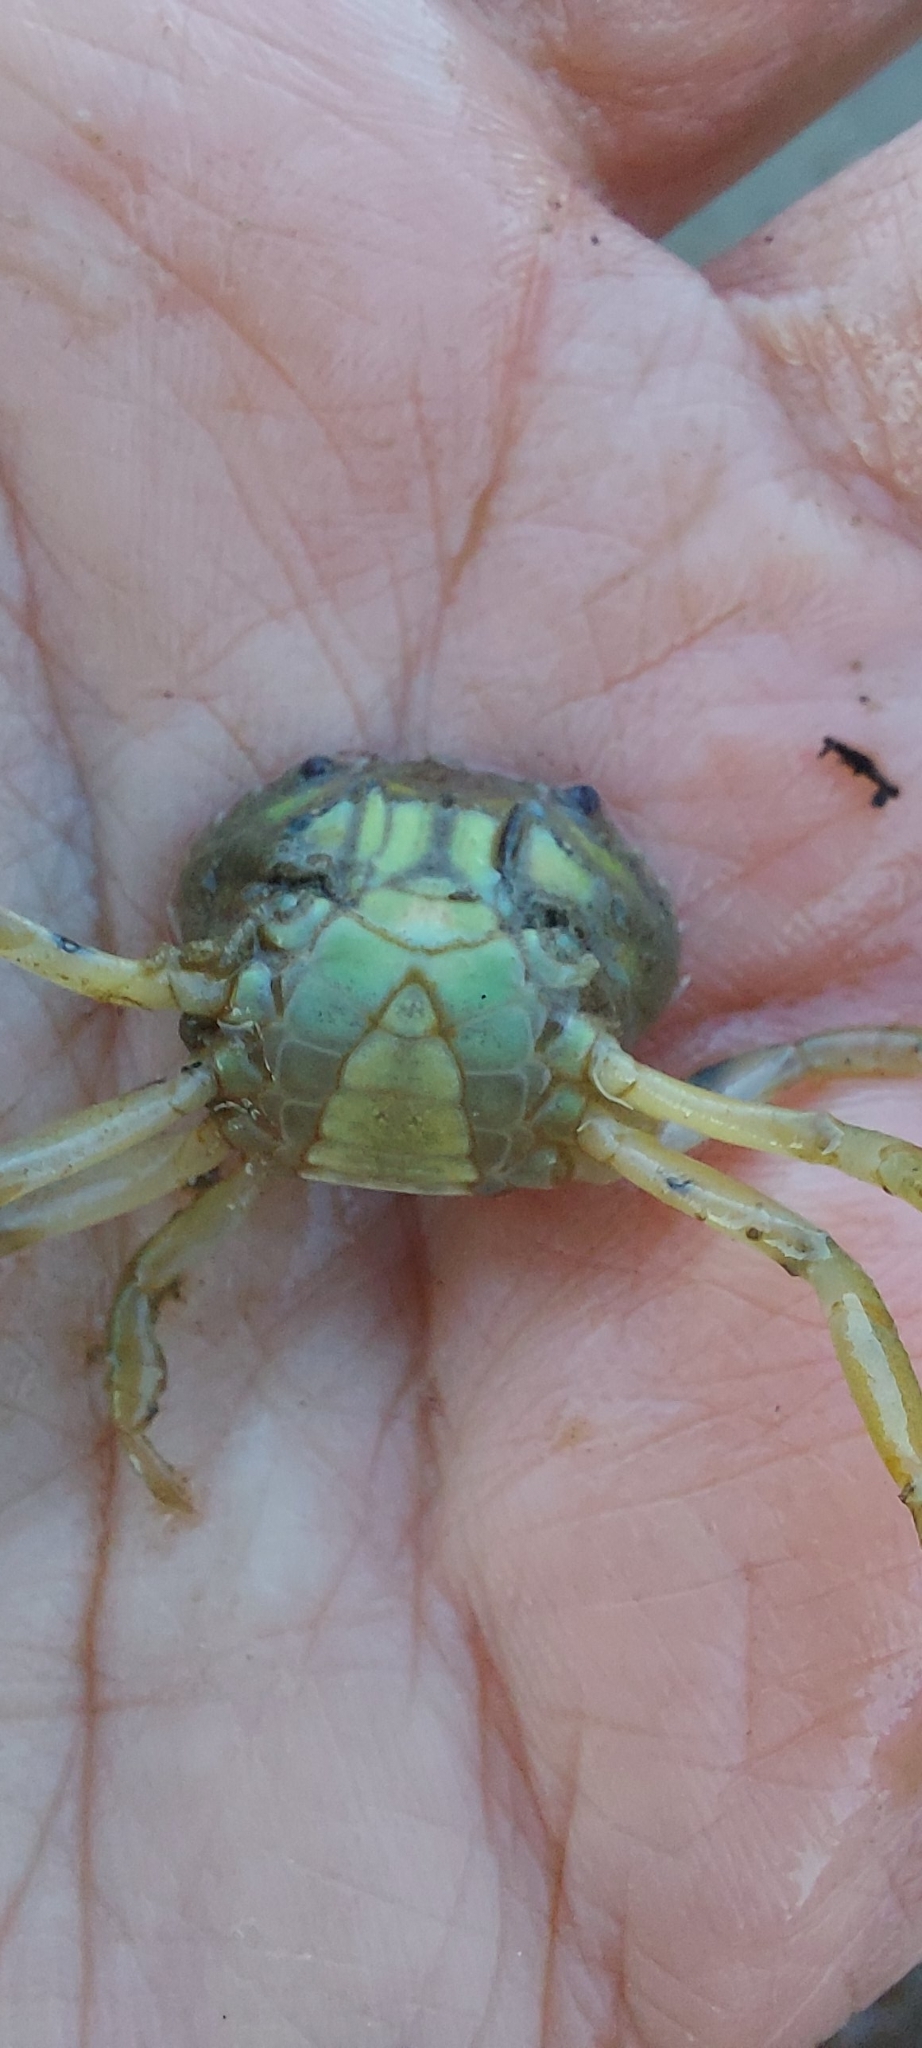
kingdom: Animalia
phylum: Arthropoda
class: Malacostraca
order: Decapoda
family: Carcinidae
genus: Carcinus
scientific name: Carcinus maenas
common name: European green crab
